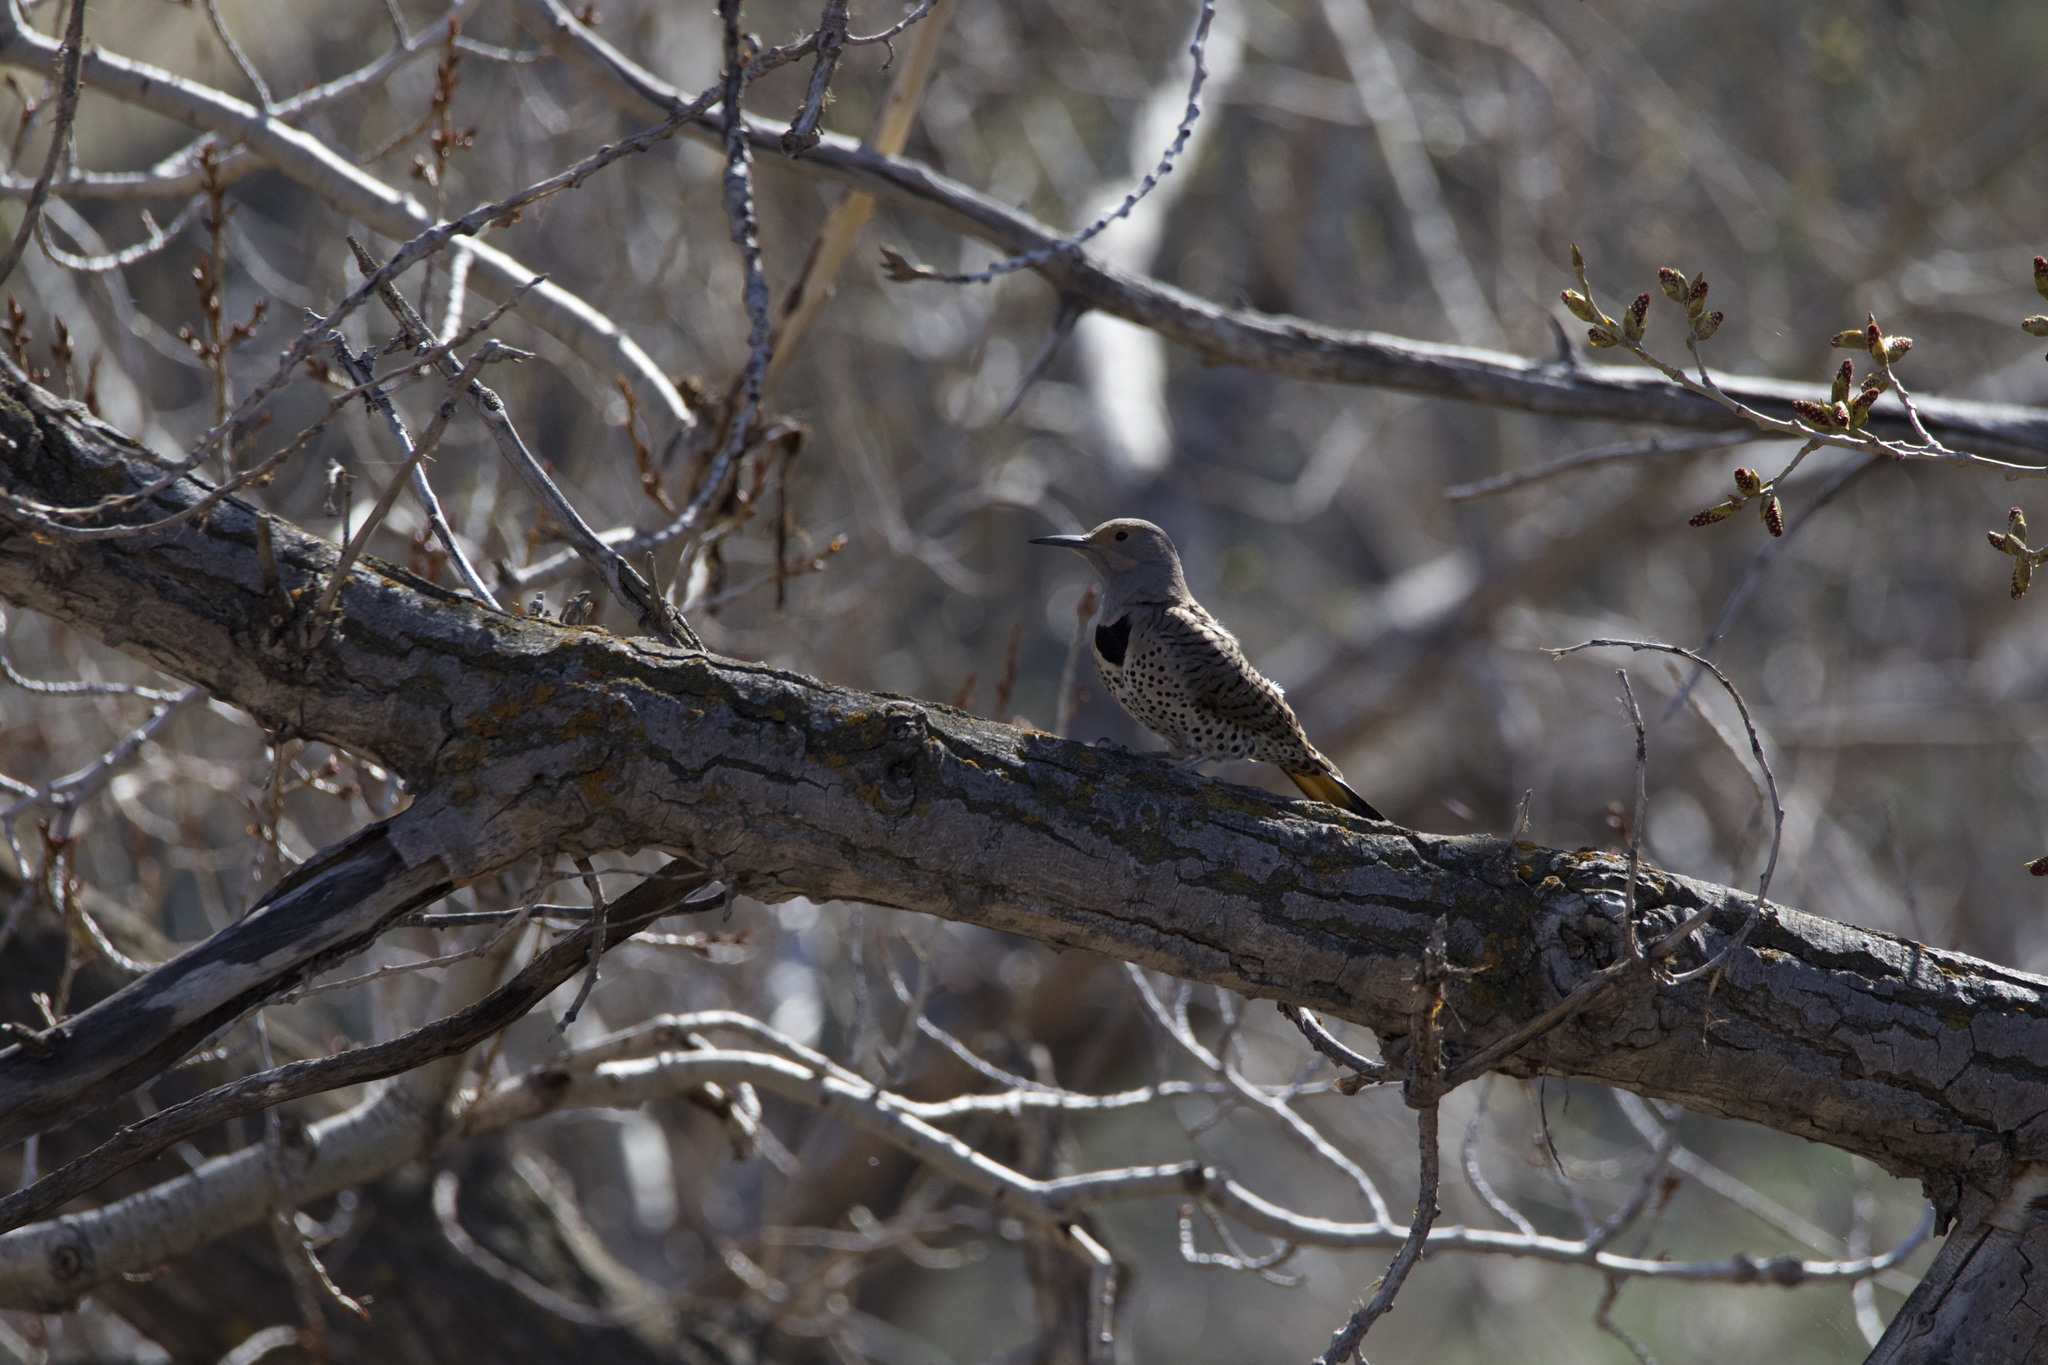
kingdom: Animalia
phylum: Chordata
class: Aves
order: Piciformes
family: Picidae
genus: Colaptes
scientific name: Colaptes auratus
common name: Northern flicker
